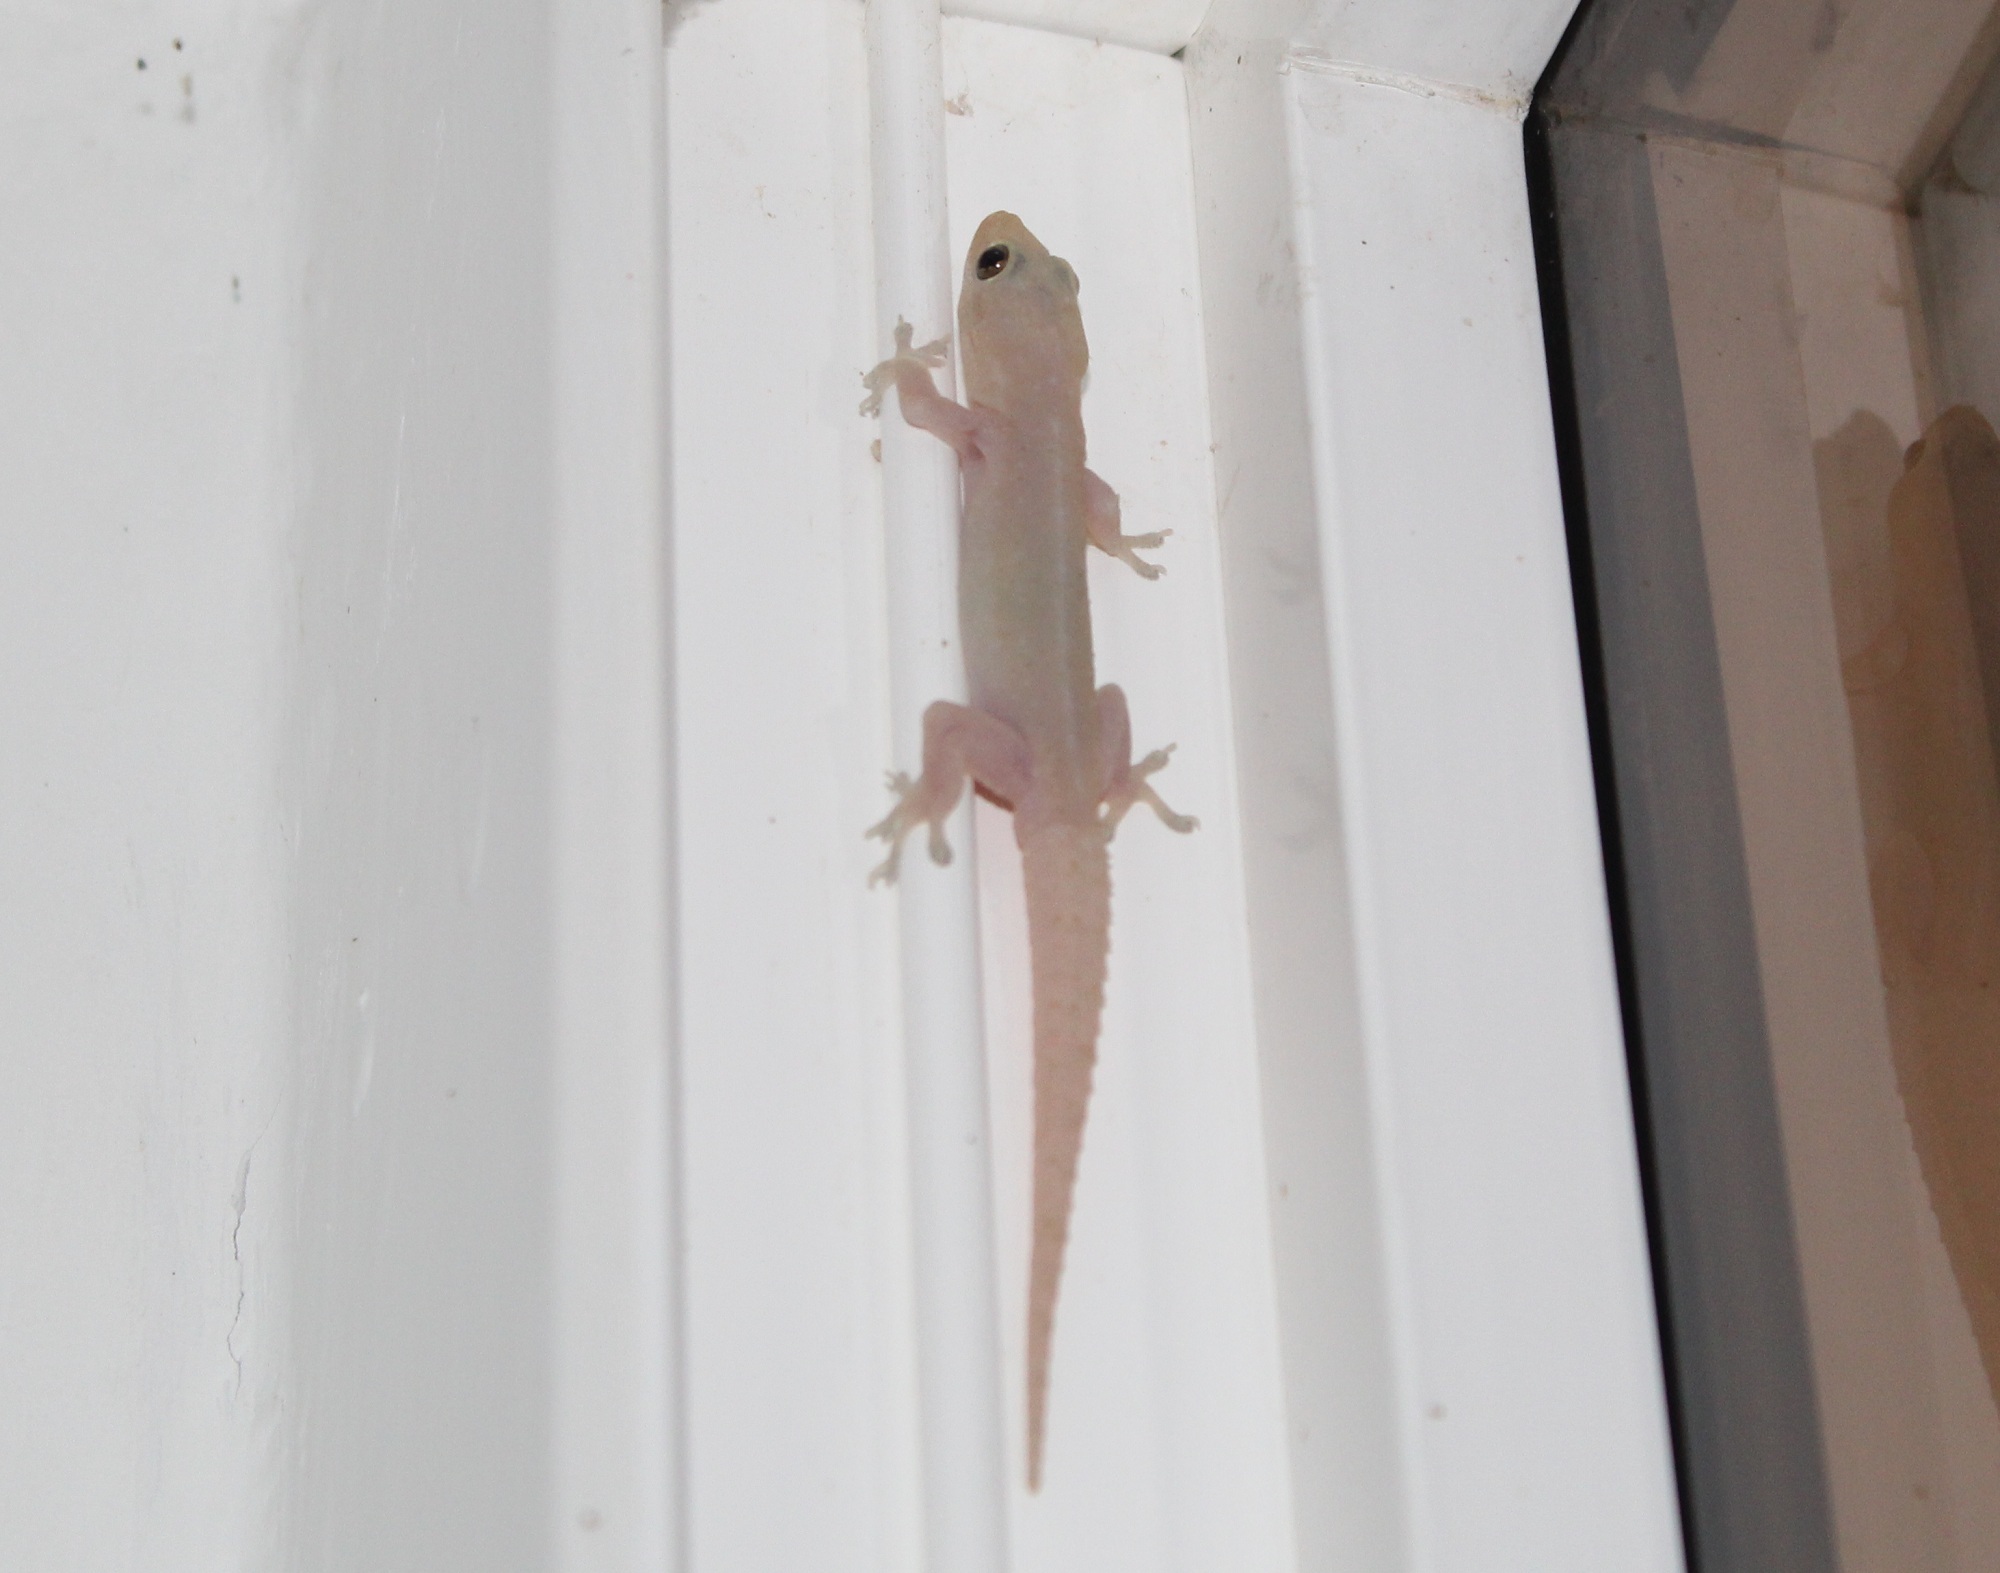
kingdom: Animalia
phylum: Chordata
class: Squamata
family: Gekkonidae
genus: Hemidactylus
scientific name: Hemidactylus frenatus
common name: Common house gecko
